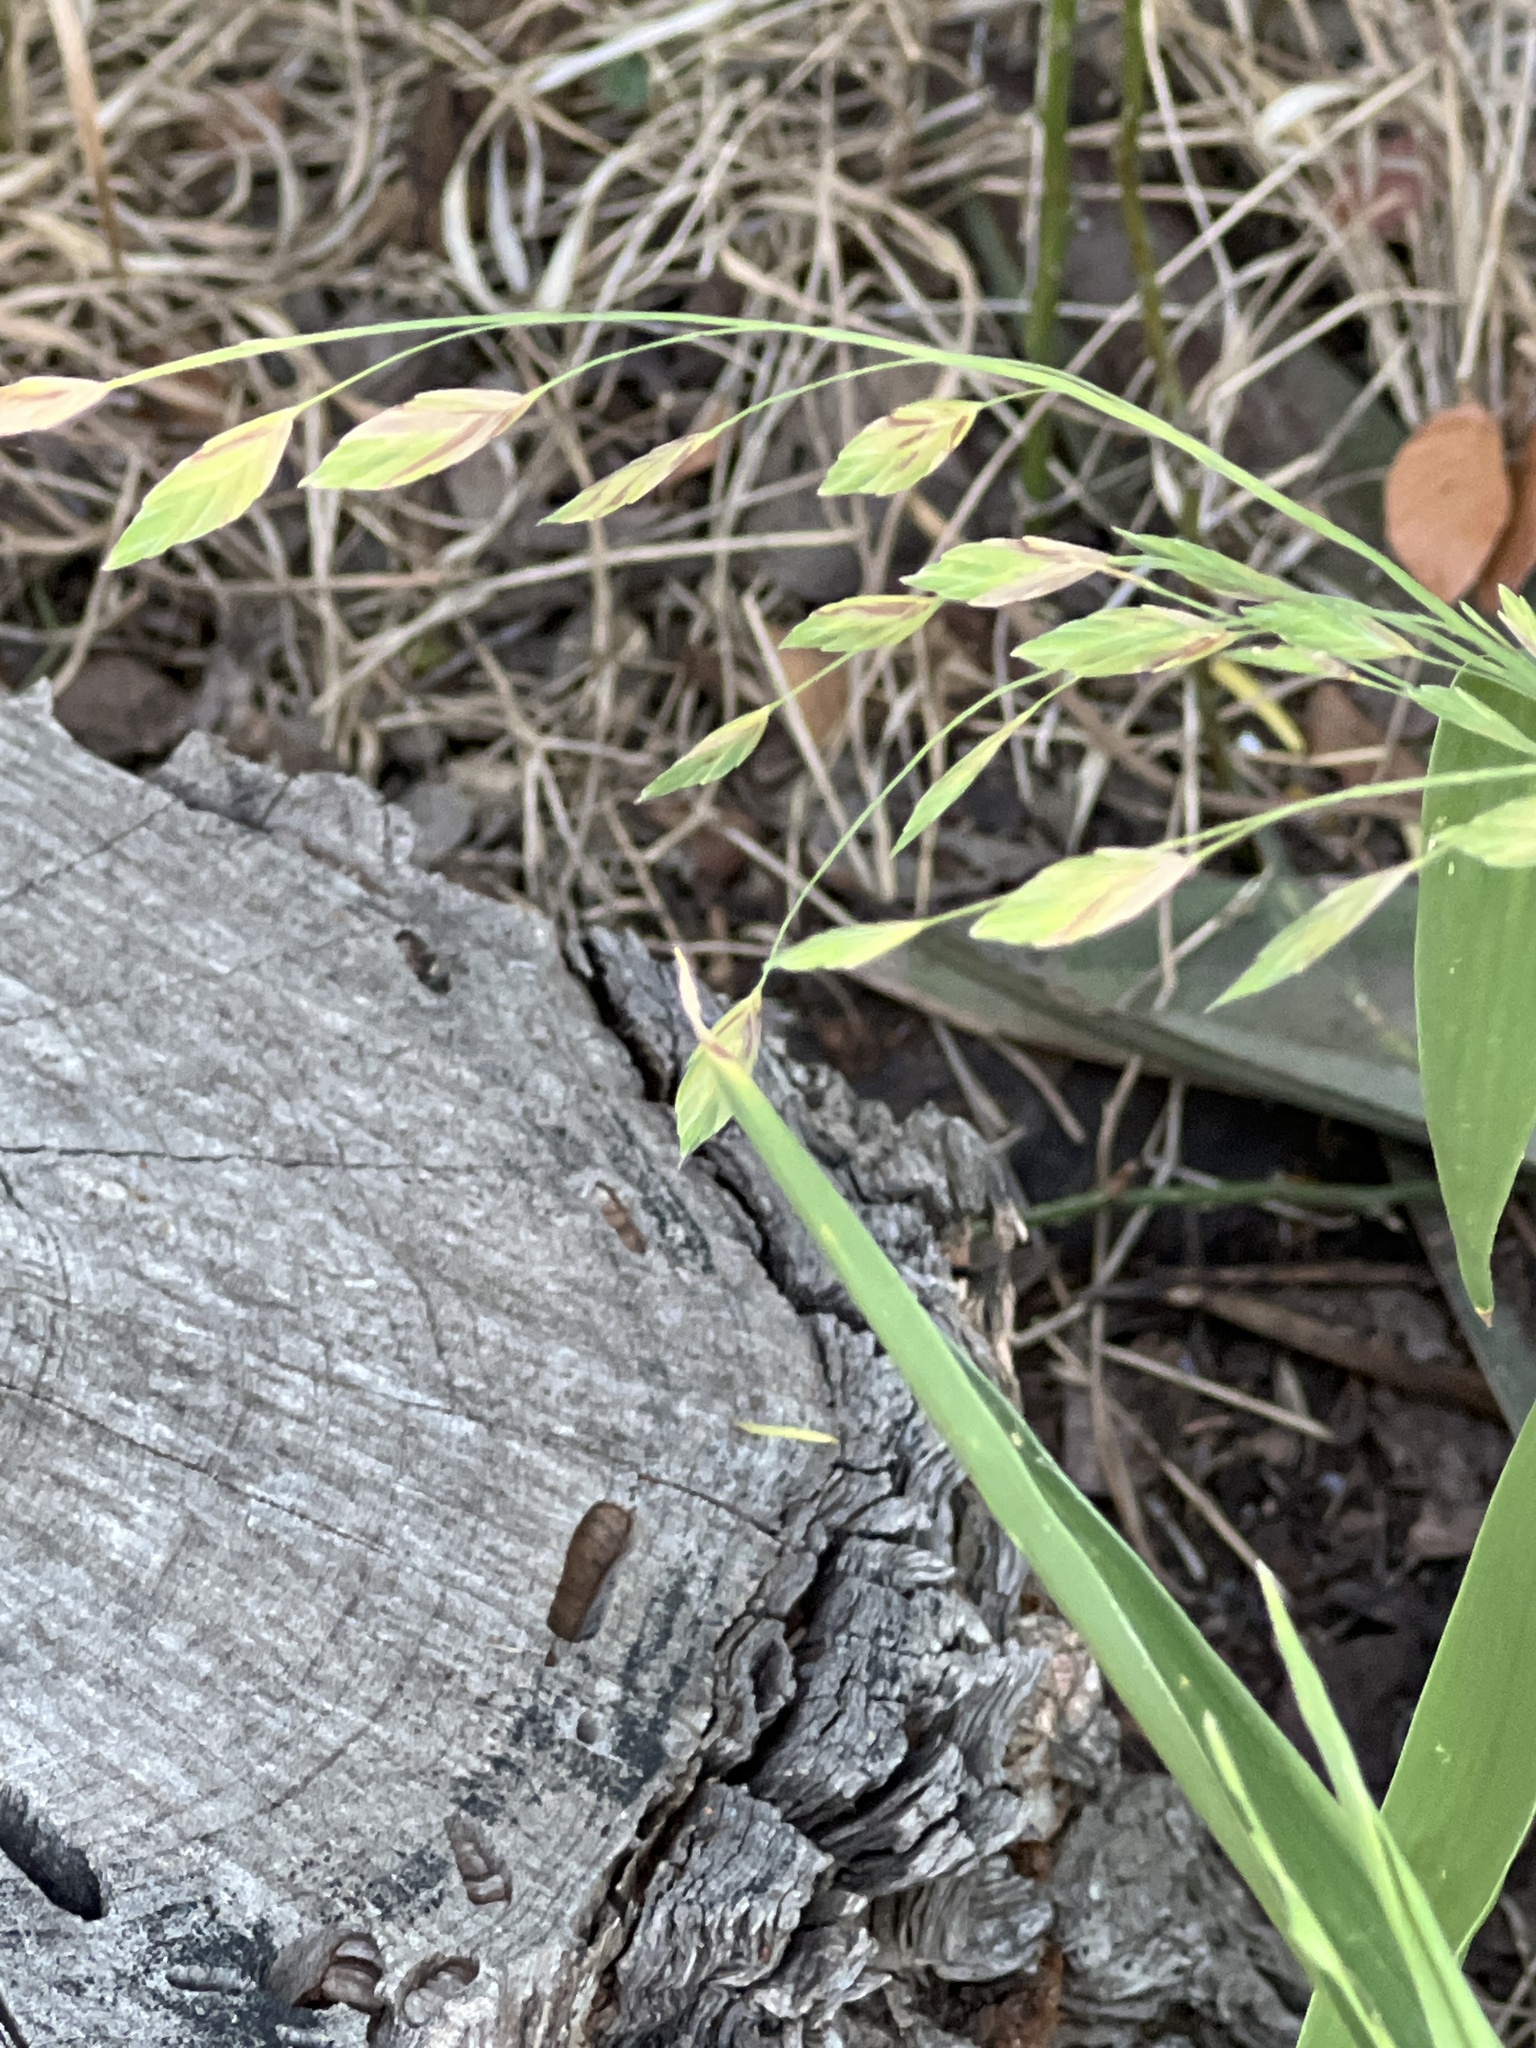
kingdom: Plantae
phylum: Tracheophyta
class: Liliopsida
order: Poales
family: Poaceae
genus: Chasmanthium
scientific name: Chasmanthium latifolium
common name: Broad-leaved chasmanthium
